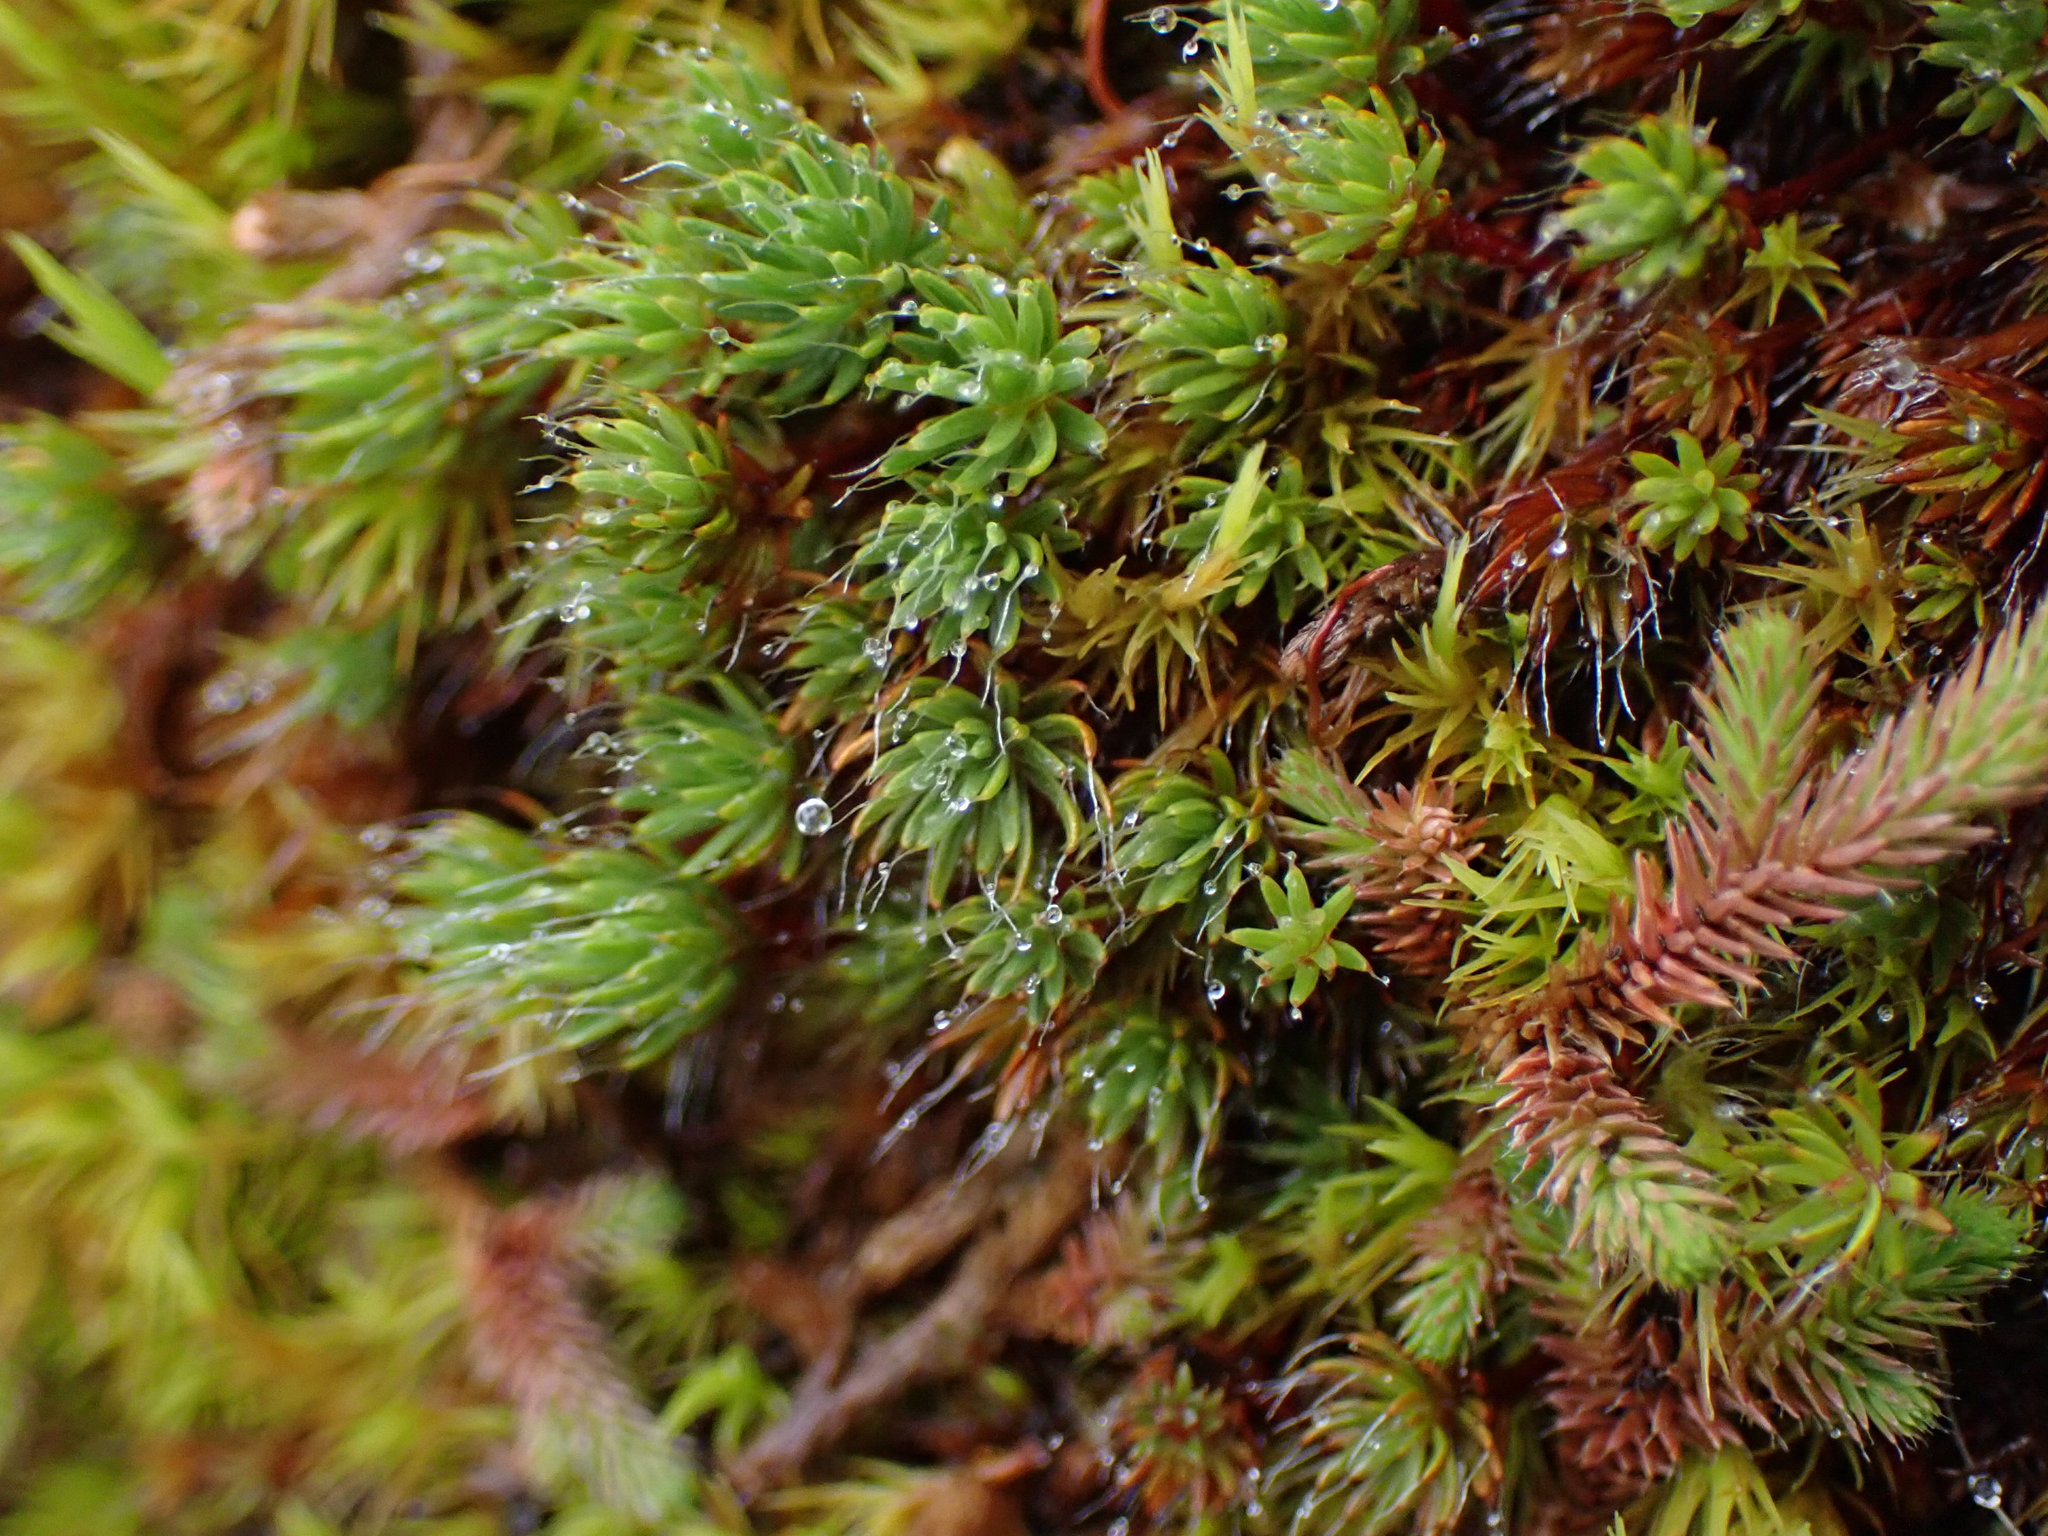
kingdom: Plantae
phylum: Bryophyta
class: Polytrichopsida
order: Polytrichales
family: Polytrichaceae
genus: Polytrichum
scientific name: Polytrichum piliferum
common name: Bristly haircap
